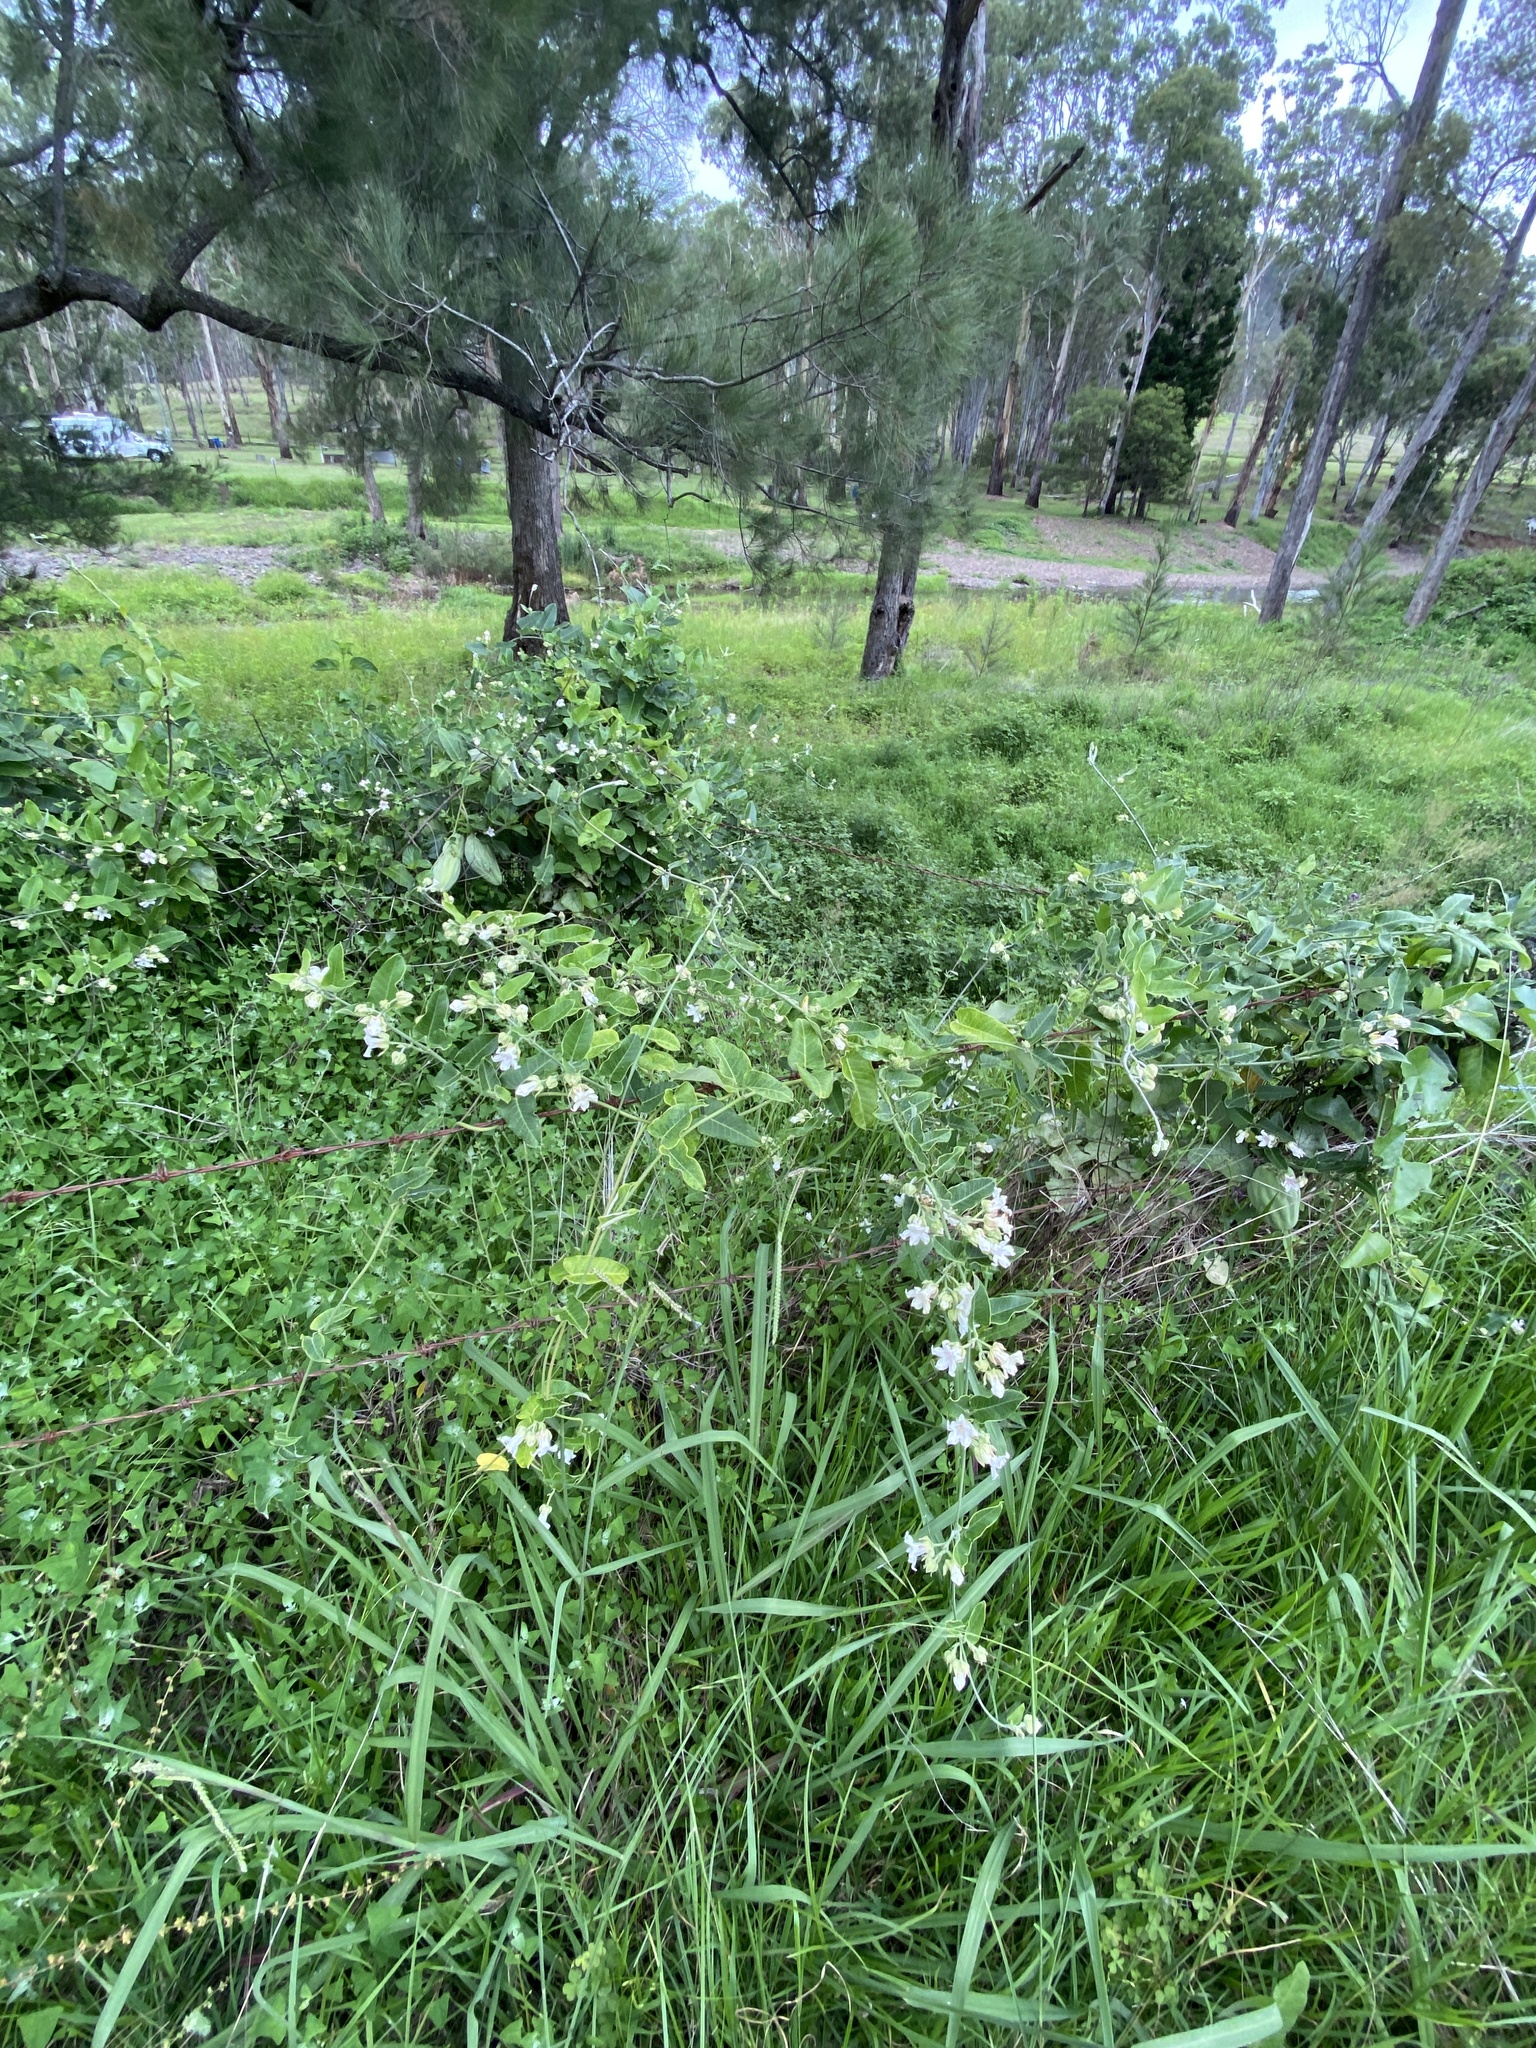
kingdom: Plantae
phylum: Tracheophyta
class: Magnoliopsida
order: Gentianales
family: Apocynaceae
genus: Araujia
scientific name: Araujia sericifera
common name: White bladderflower
